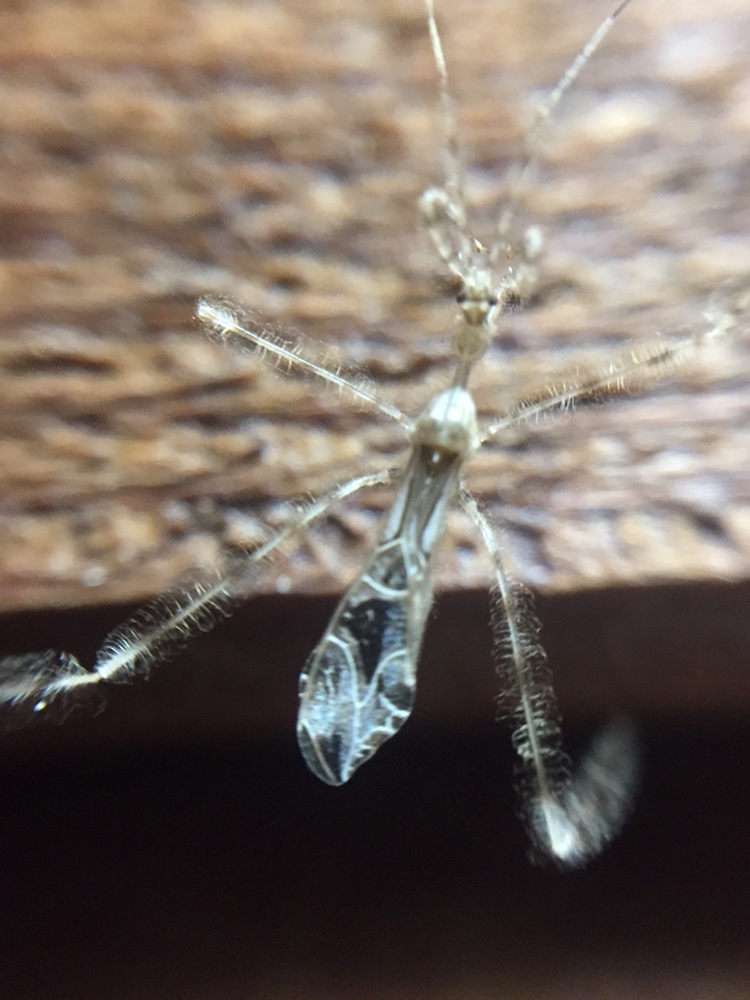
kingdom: Animalia
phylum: Arthropoda
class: Insecta
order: Hemiptera
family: Reduviidae
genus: Stenolemus
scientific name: Stenolemus fraterculus
